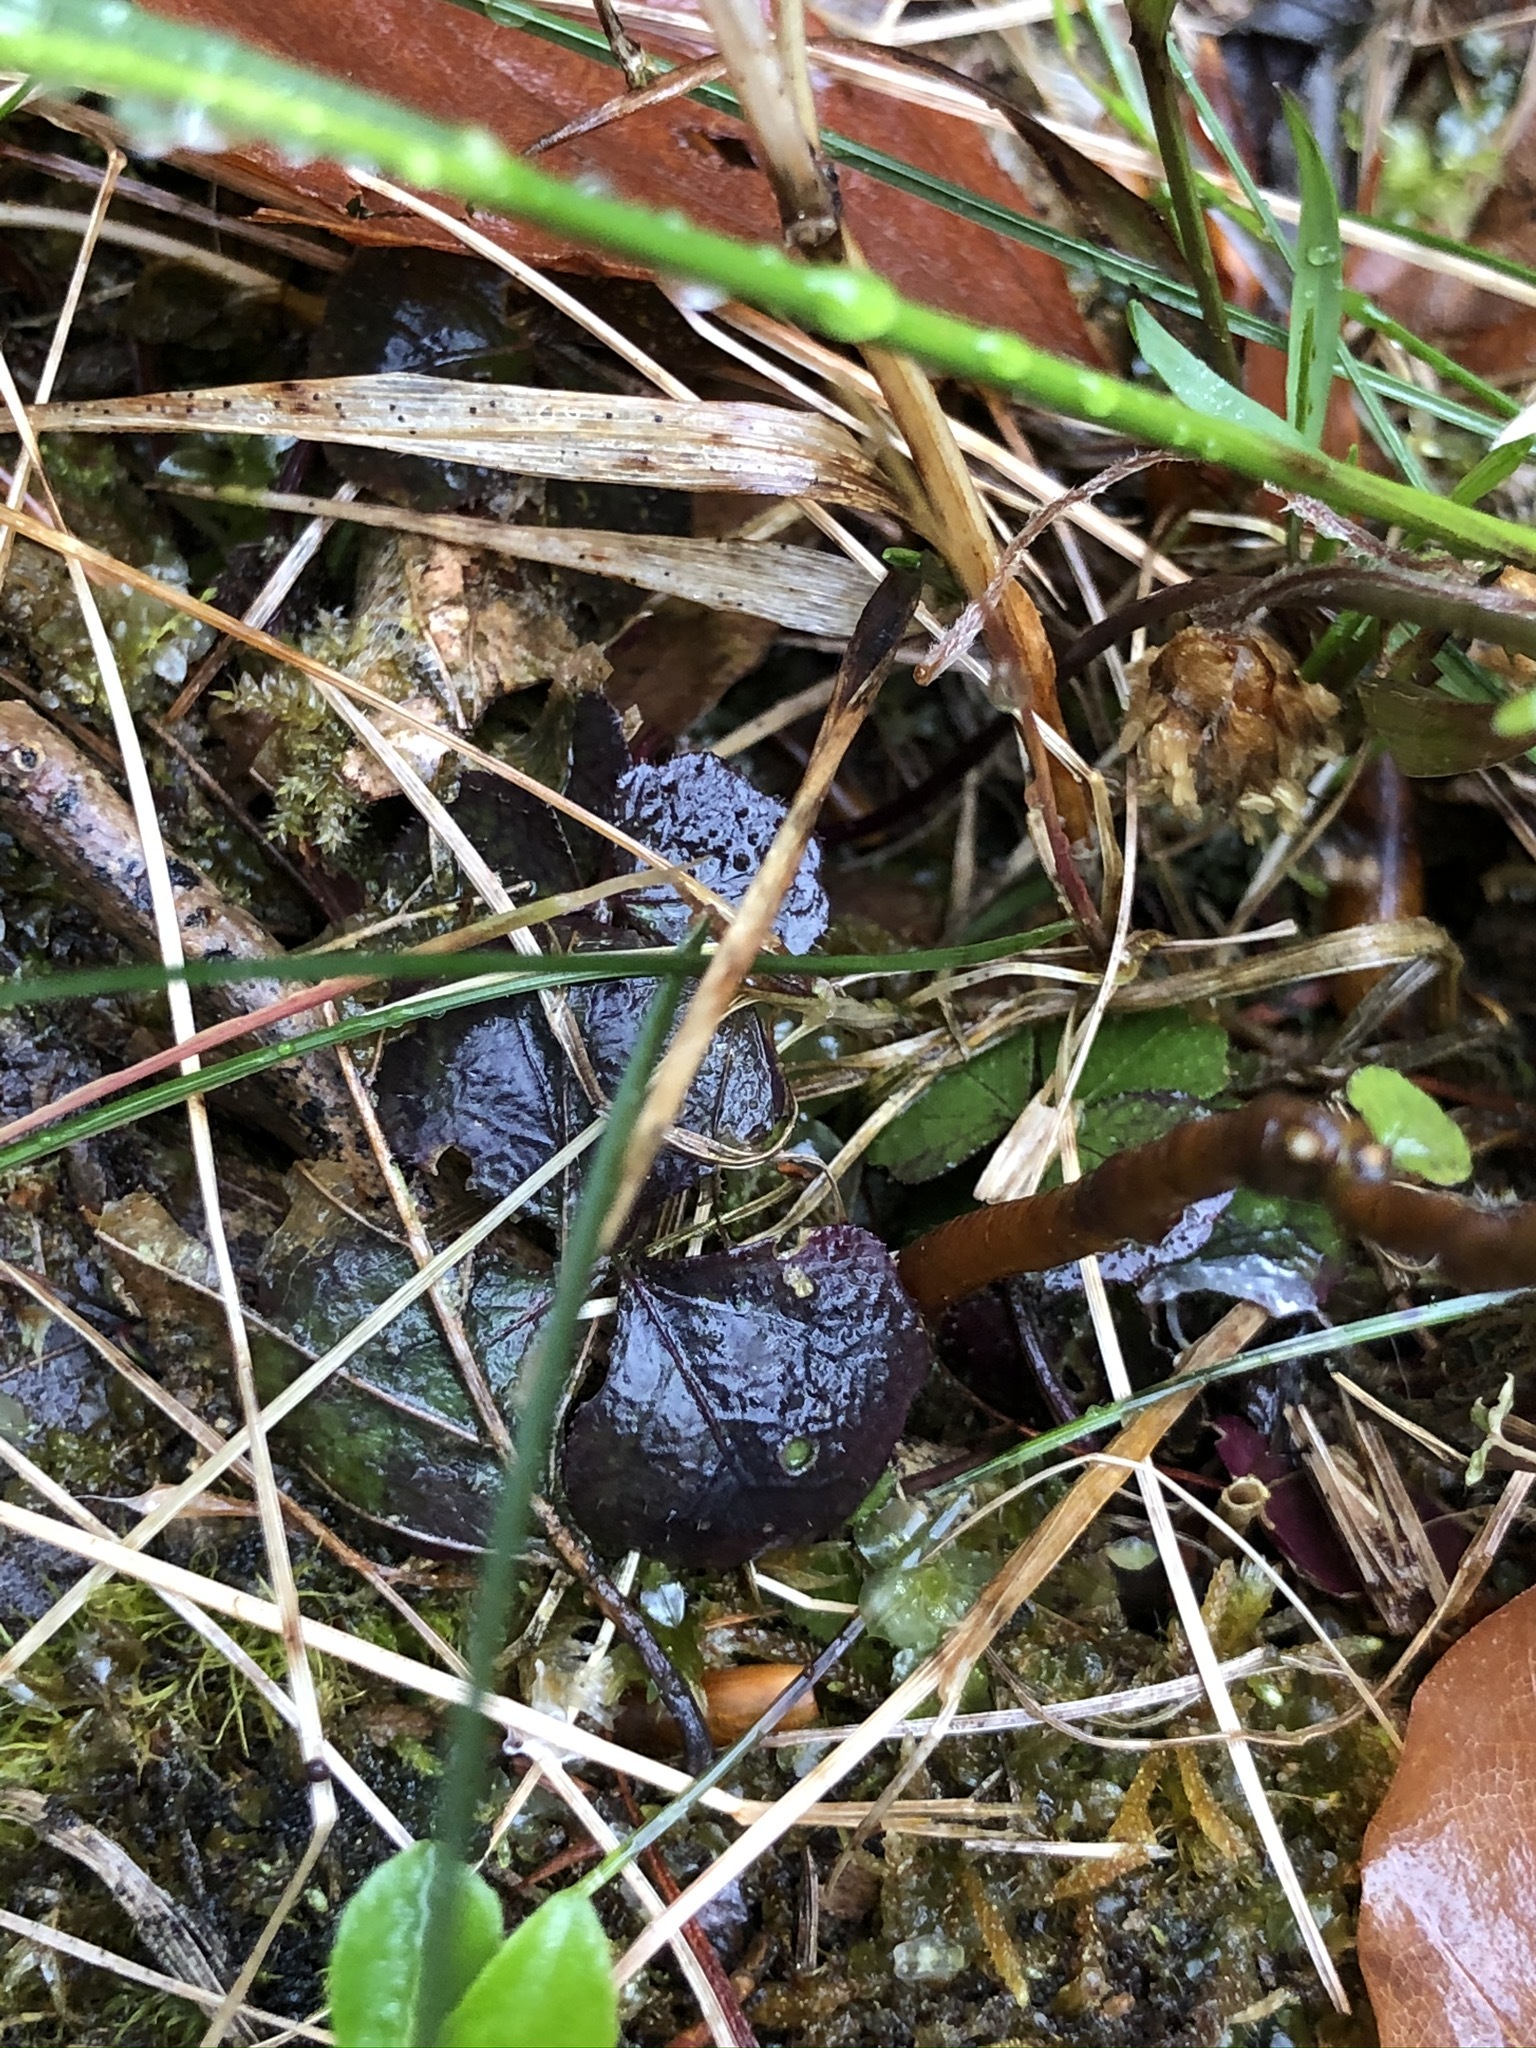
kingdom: Plantae
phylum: Tracheophyta
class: Magnoliopsida
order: Brassicales
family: Brassicaceae
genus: Cardamine
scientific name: Cardamine trifolia
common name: Trefoil cress
